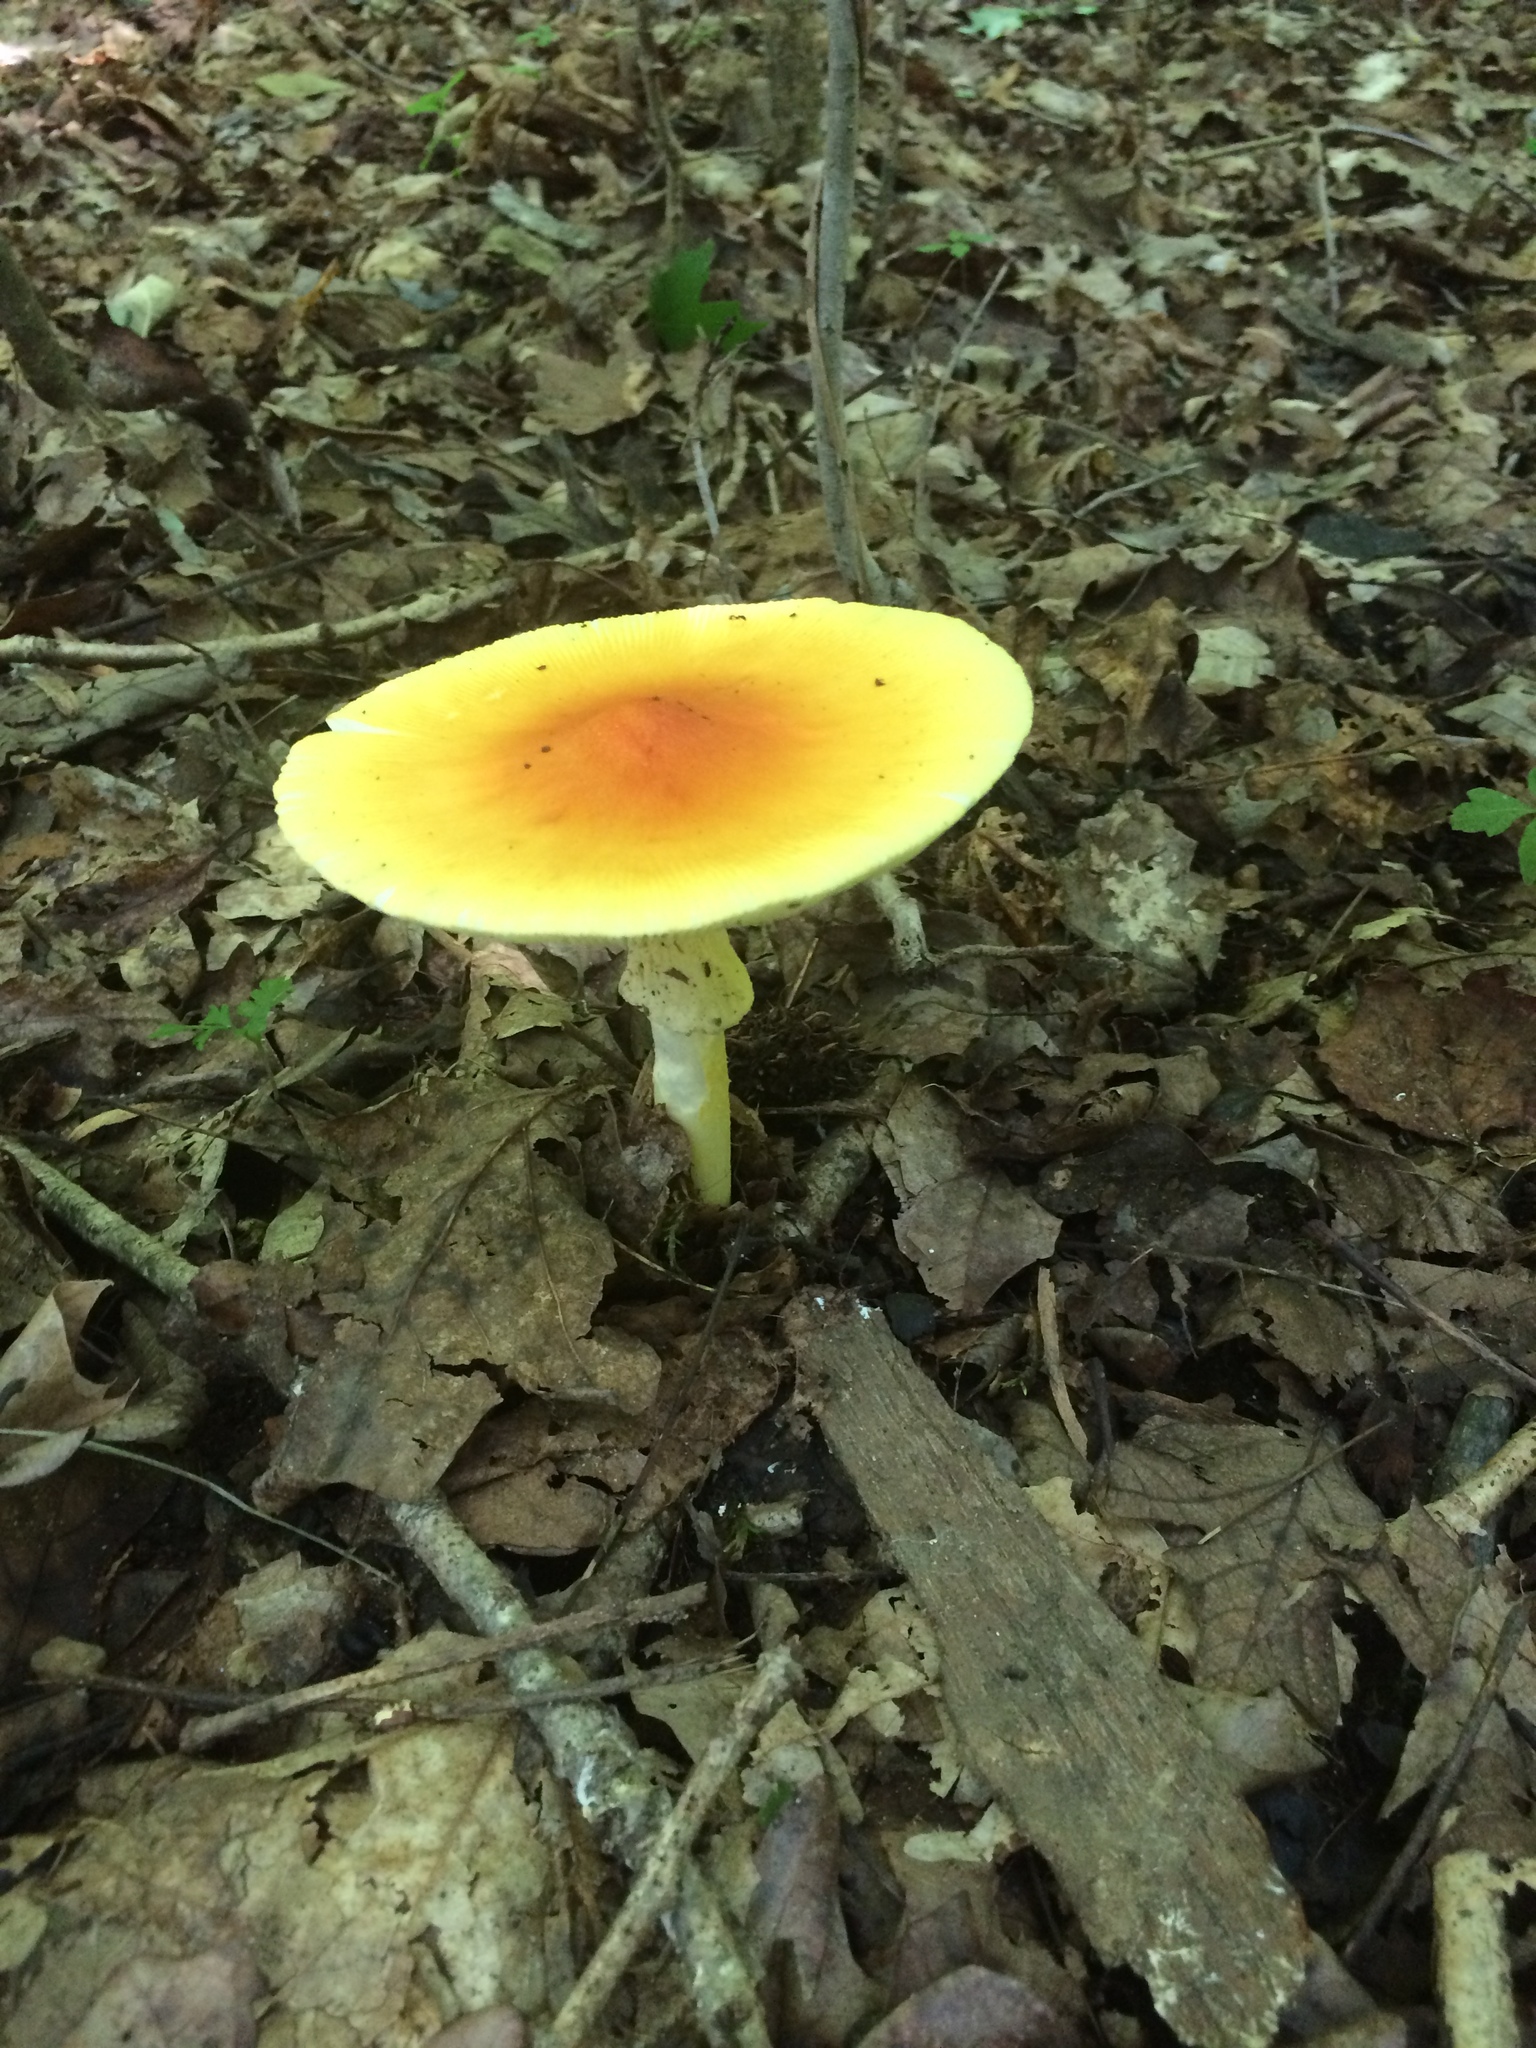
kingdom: Fungi
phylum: Basidiomycota
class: Agaricomycetes
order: Agaricales
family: Amanitaceae
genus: Amanita
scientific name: Amanita jacksonii
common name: Jackson's slender caesar
